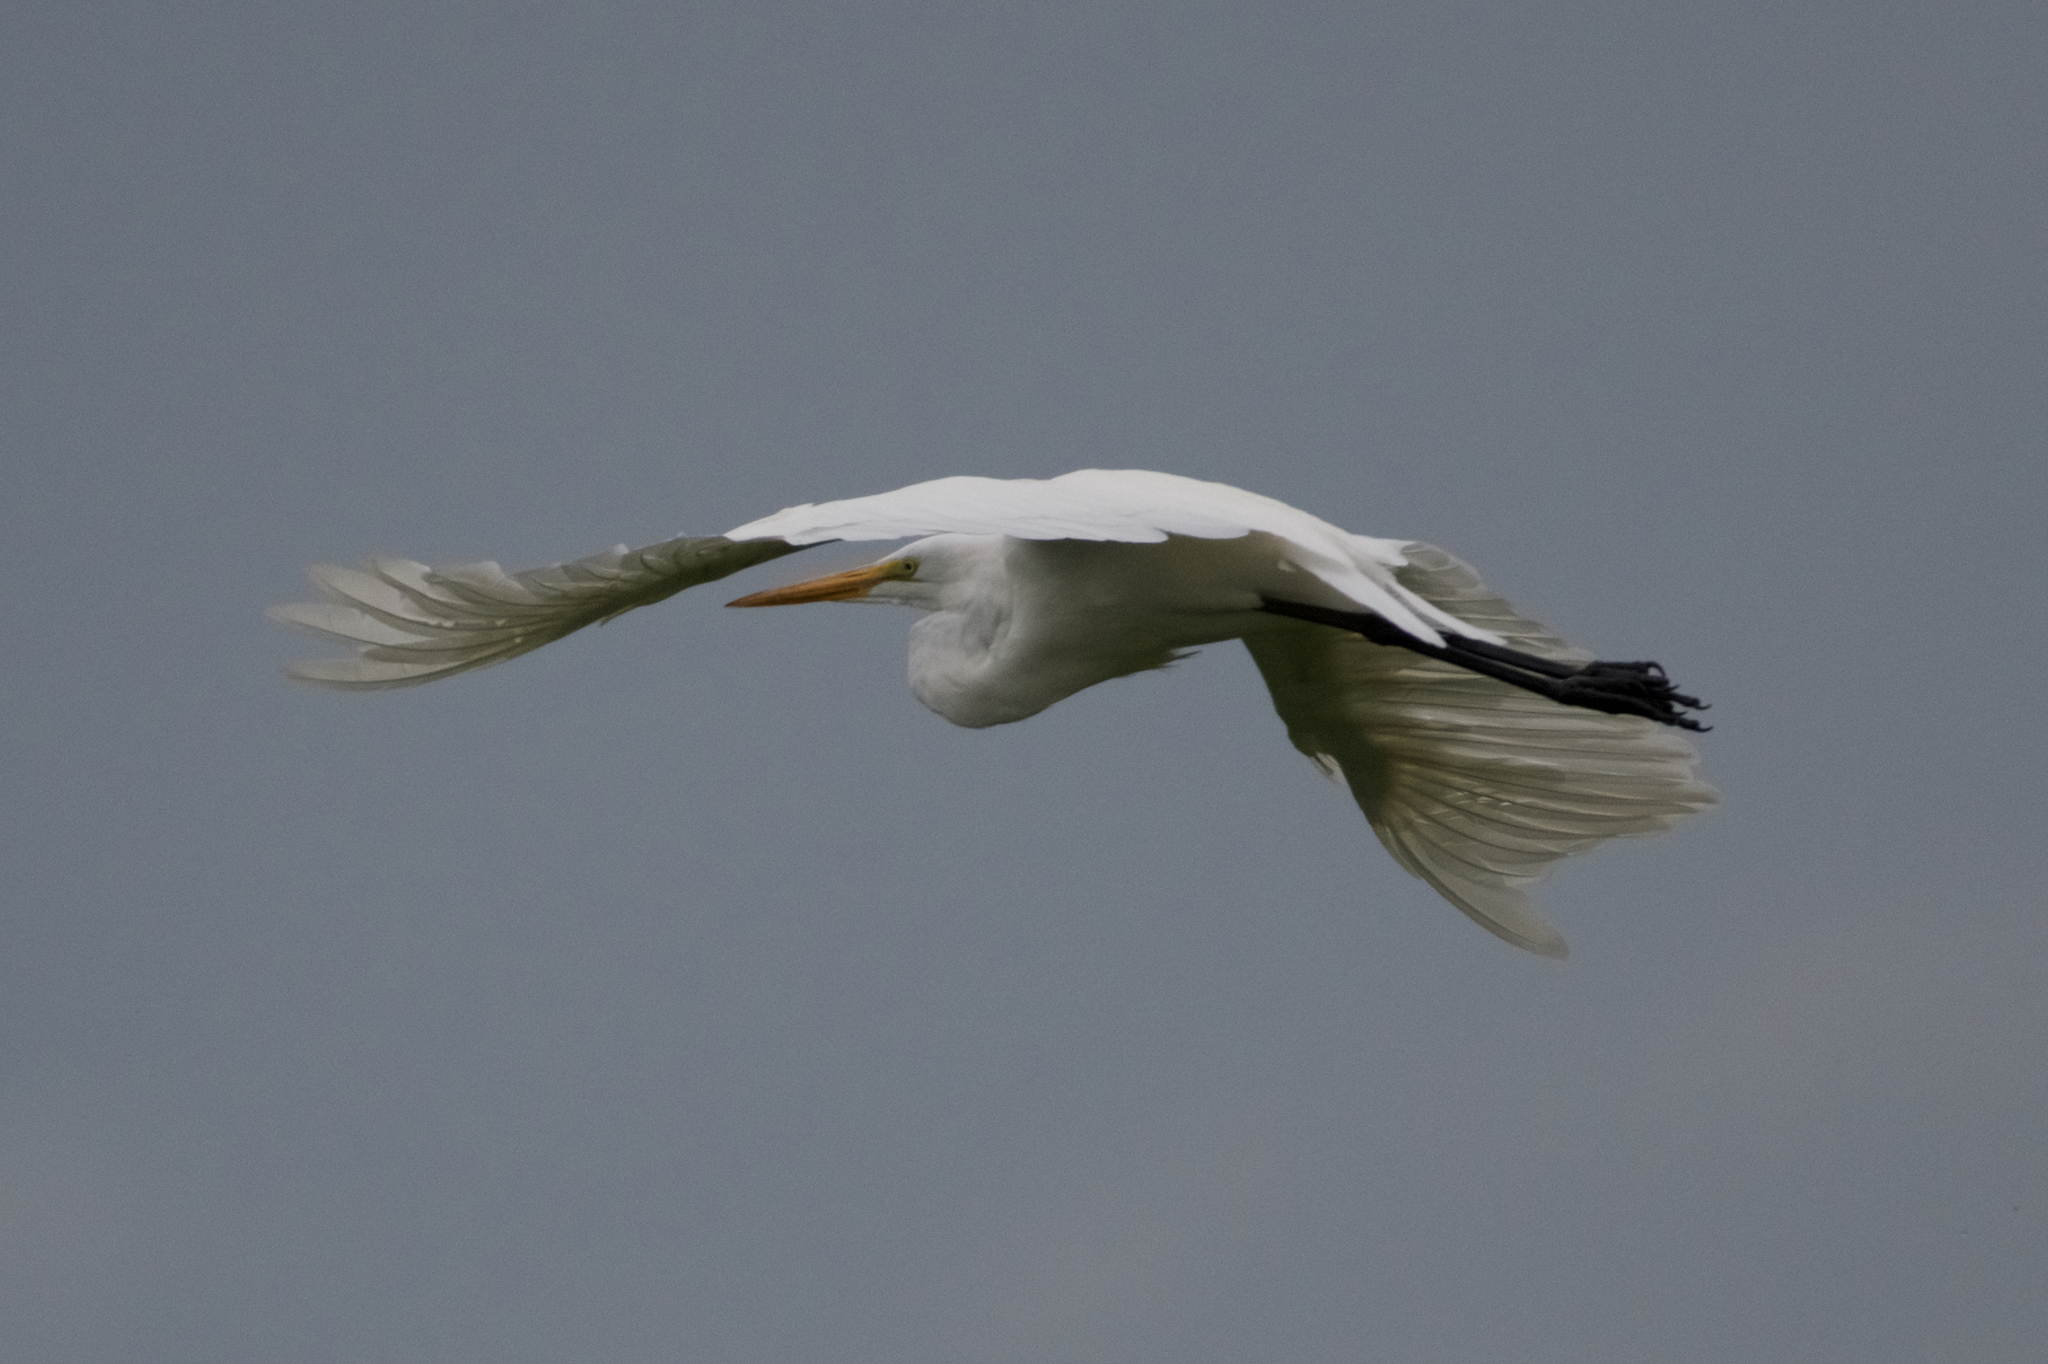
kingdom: Animalia
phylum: Chordata
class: Aves
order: Pelecaniformes
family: Ardeidae
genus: Ardea
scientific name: Ardea alba
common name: Great egret
